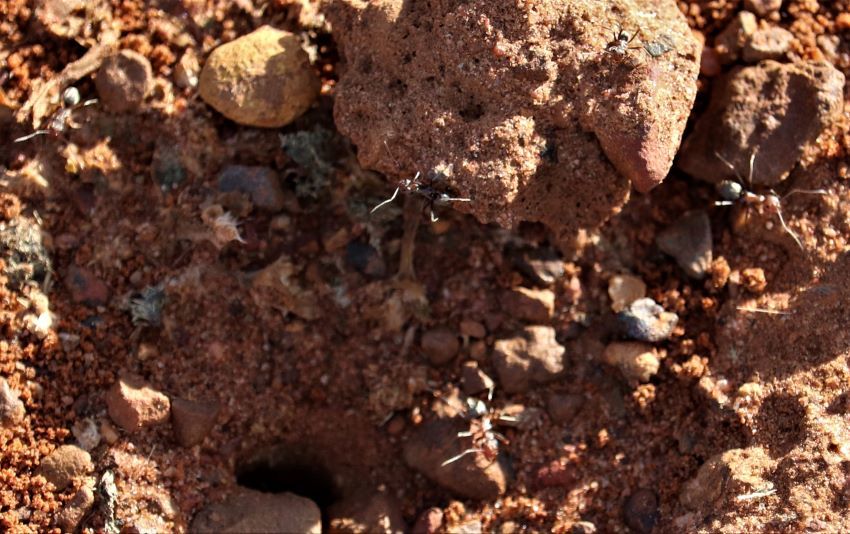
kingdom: Animalia
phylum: Arthropoda
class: Insecta
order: Hymenoptera
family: Formicidae
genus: Anoplolepis
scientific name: Anoplolepis custodiens
